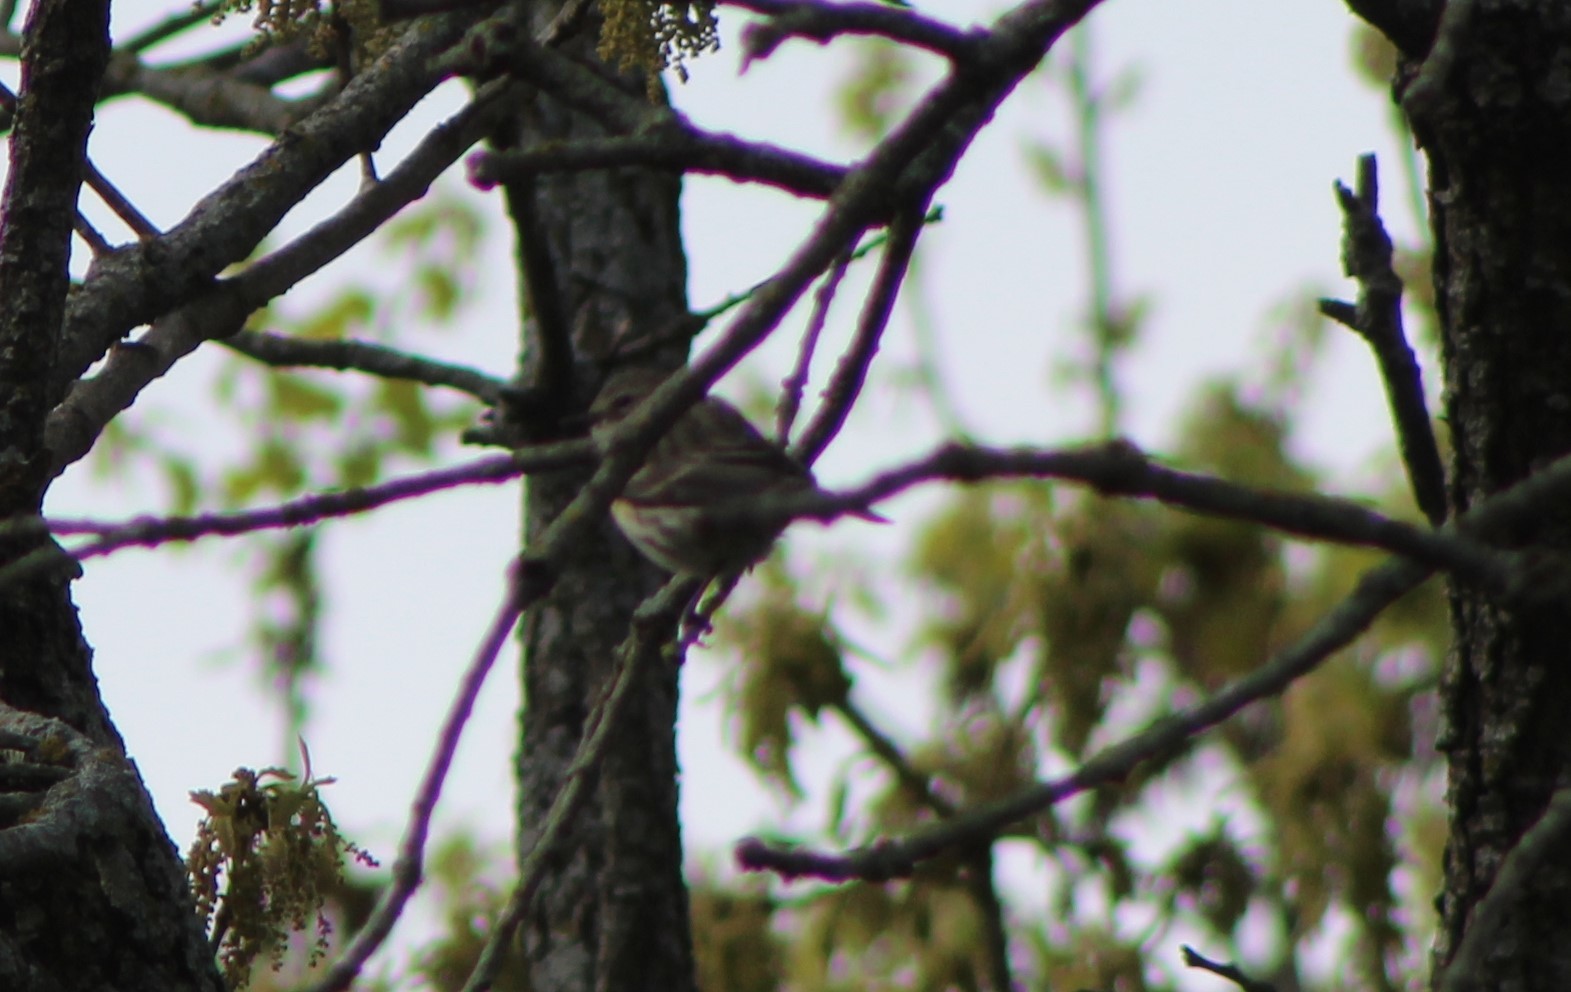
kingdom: Animalia
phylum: Chordata
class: Aves
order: Passeriformes
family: Parulidae
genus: Setophaga
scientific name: Setophaga coronata
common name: Myrtle warbler
